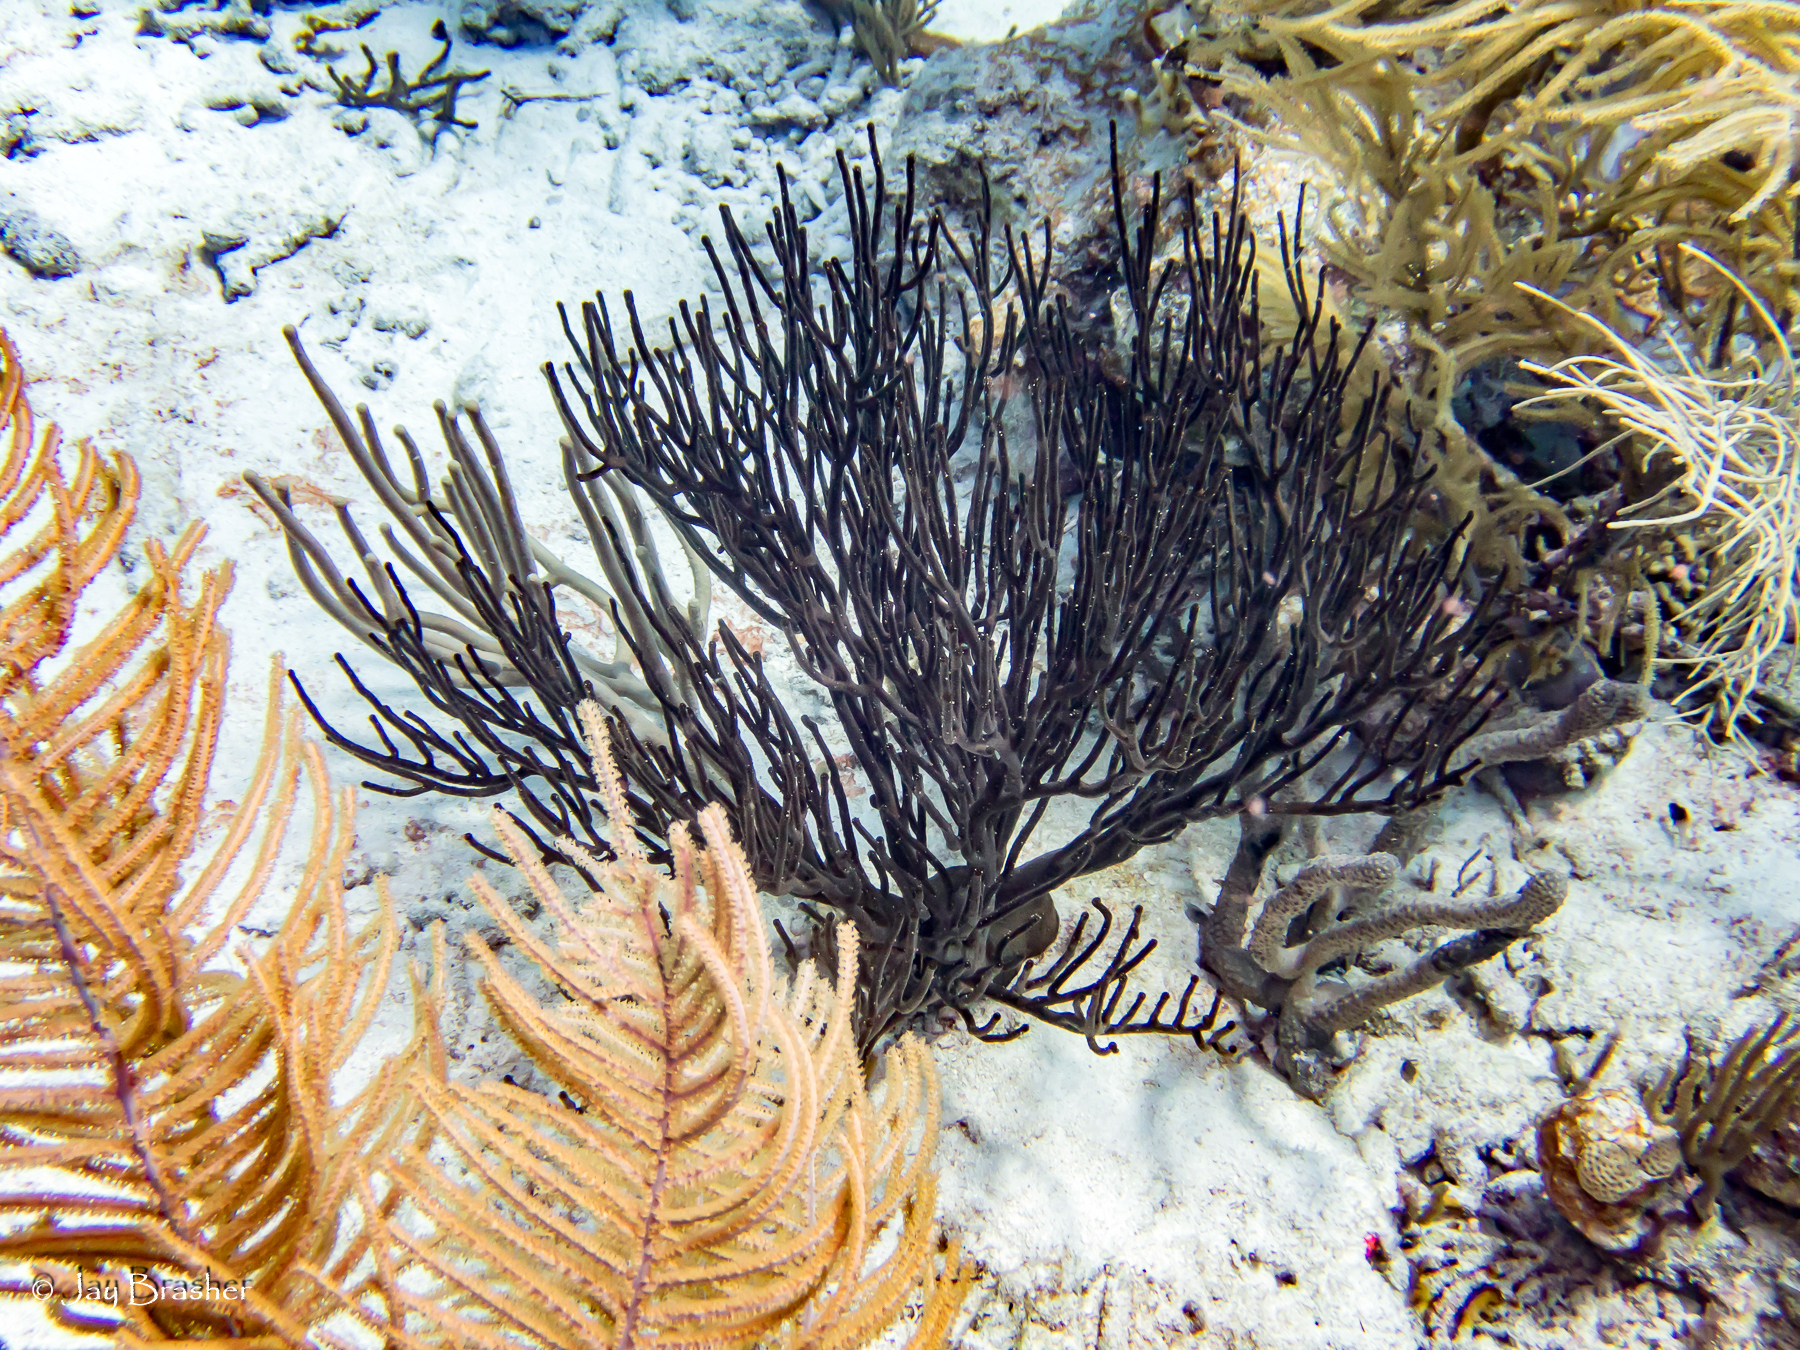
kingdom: Animalia
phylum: Cnidaria
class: Anthozoa
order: Malacalcyonacea
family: Plexauridae
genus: Plexaura
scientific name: Plexaura homomalla
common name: Black sea rod
